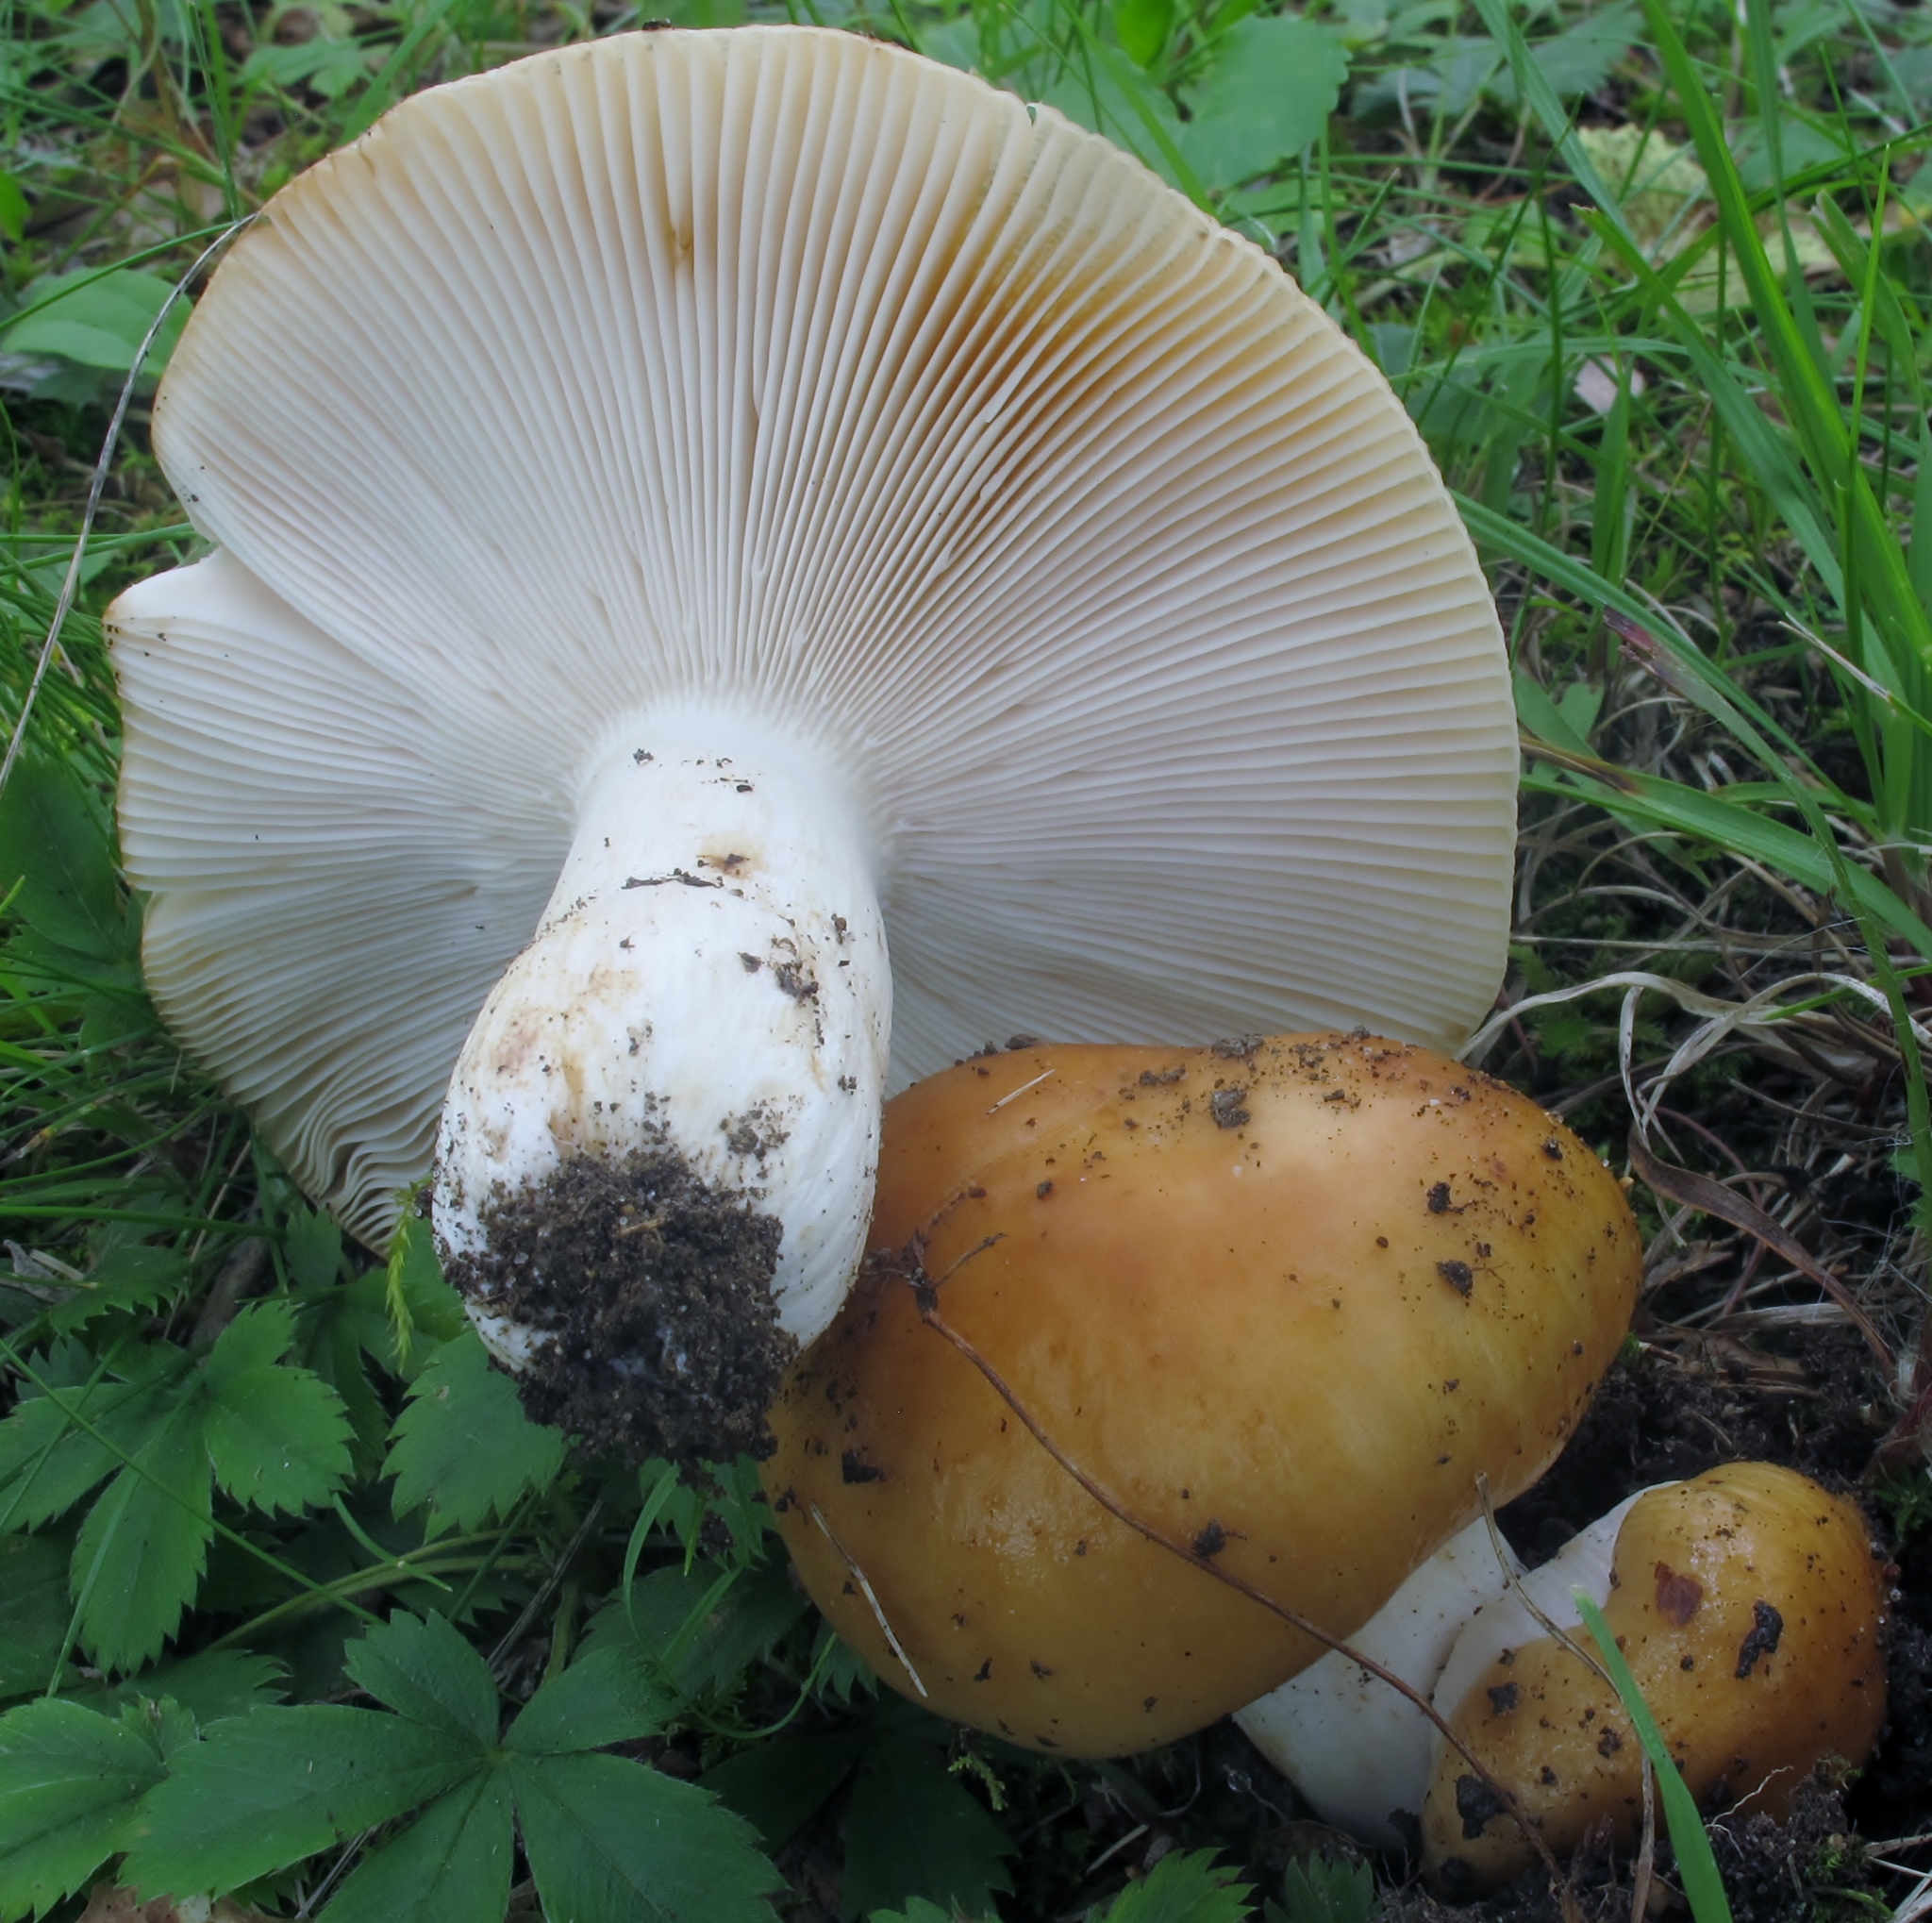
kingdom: Fungi
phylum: Basidiomycota
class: Agaricomycetes
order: Russulales
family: Russulaceae
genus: Russula
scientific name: Russula grata
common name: Bitter almond brittlegill
